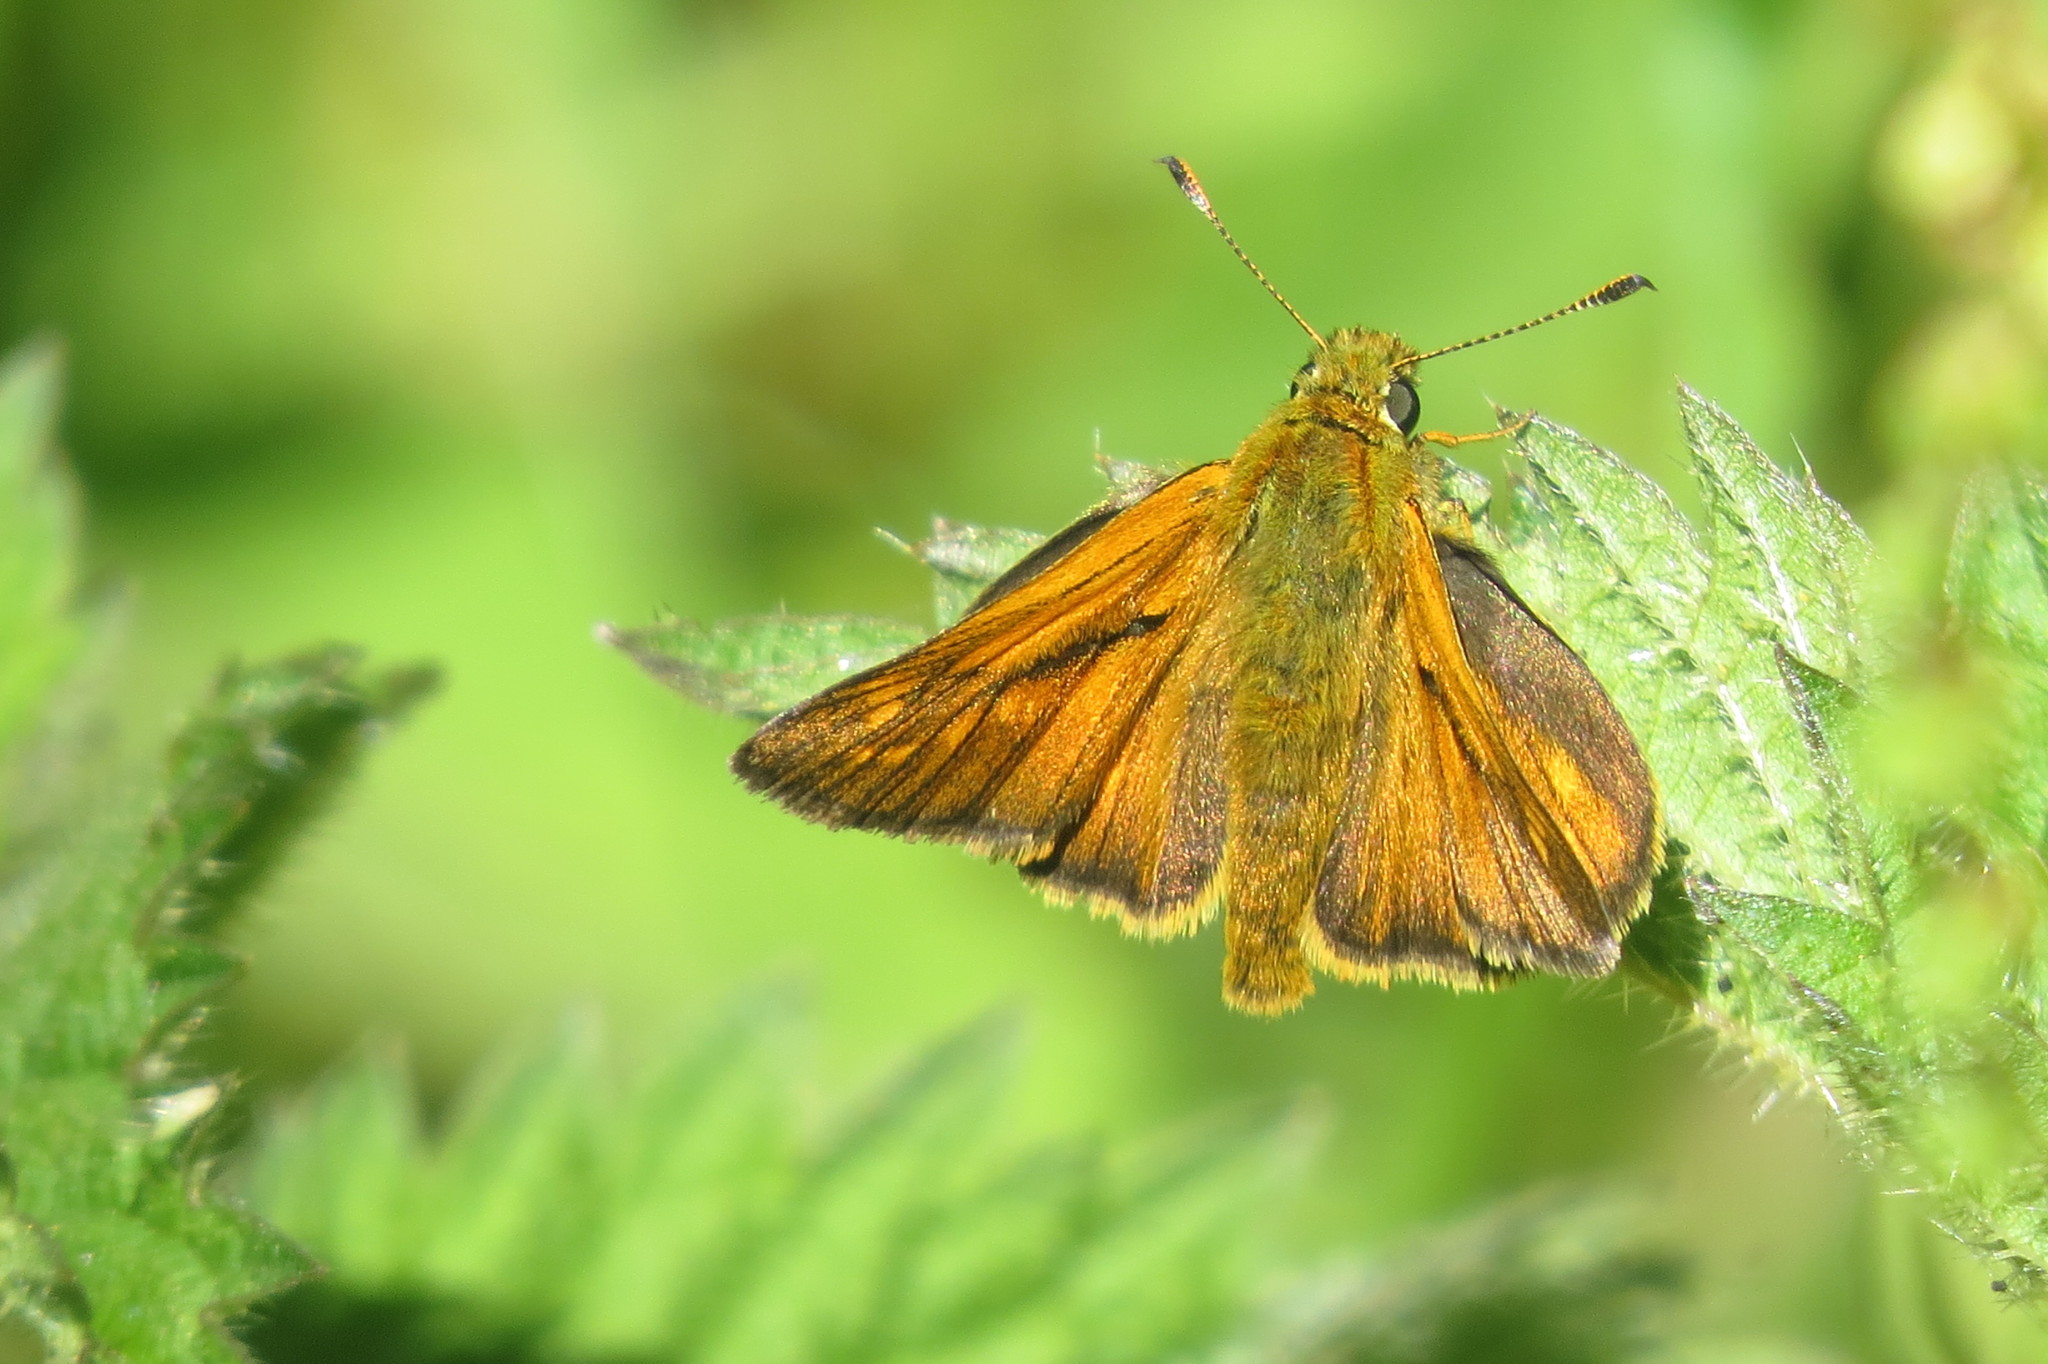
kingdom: Animalia
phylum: Arthropoda
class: Insecta
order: Lepidoptera
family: Hesperiidae
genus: Ochlodes
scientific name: Ochlodes venata
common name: Large skipper
